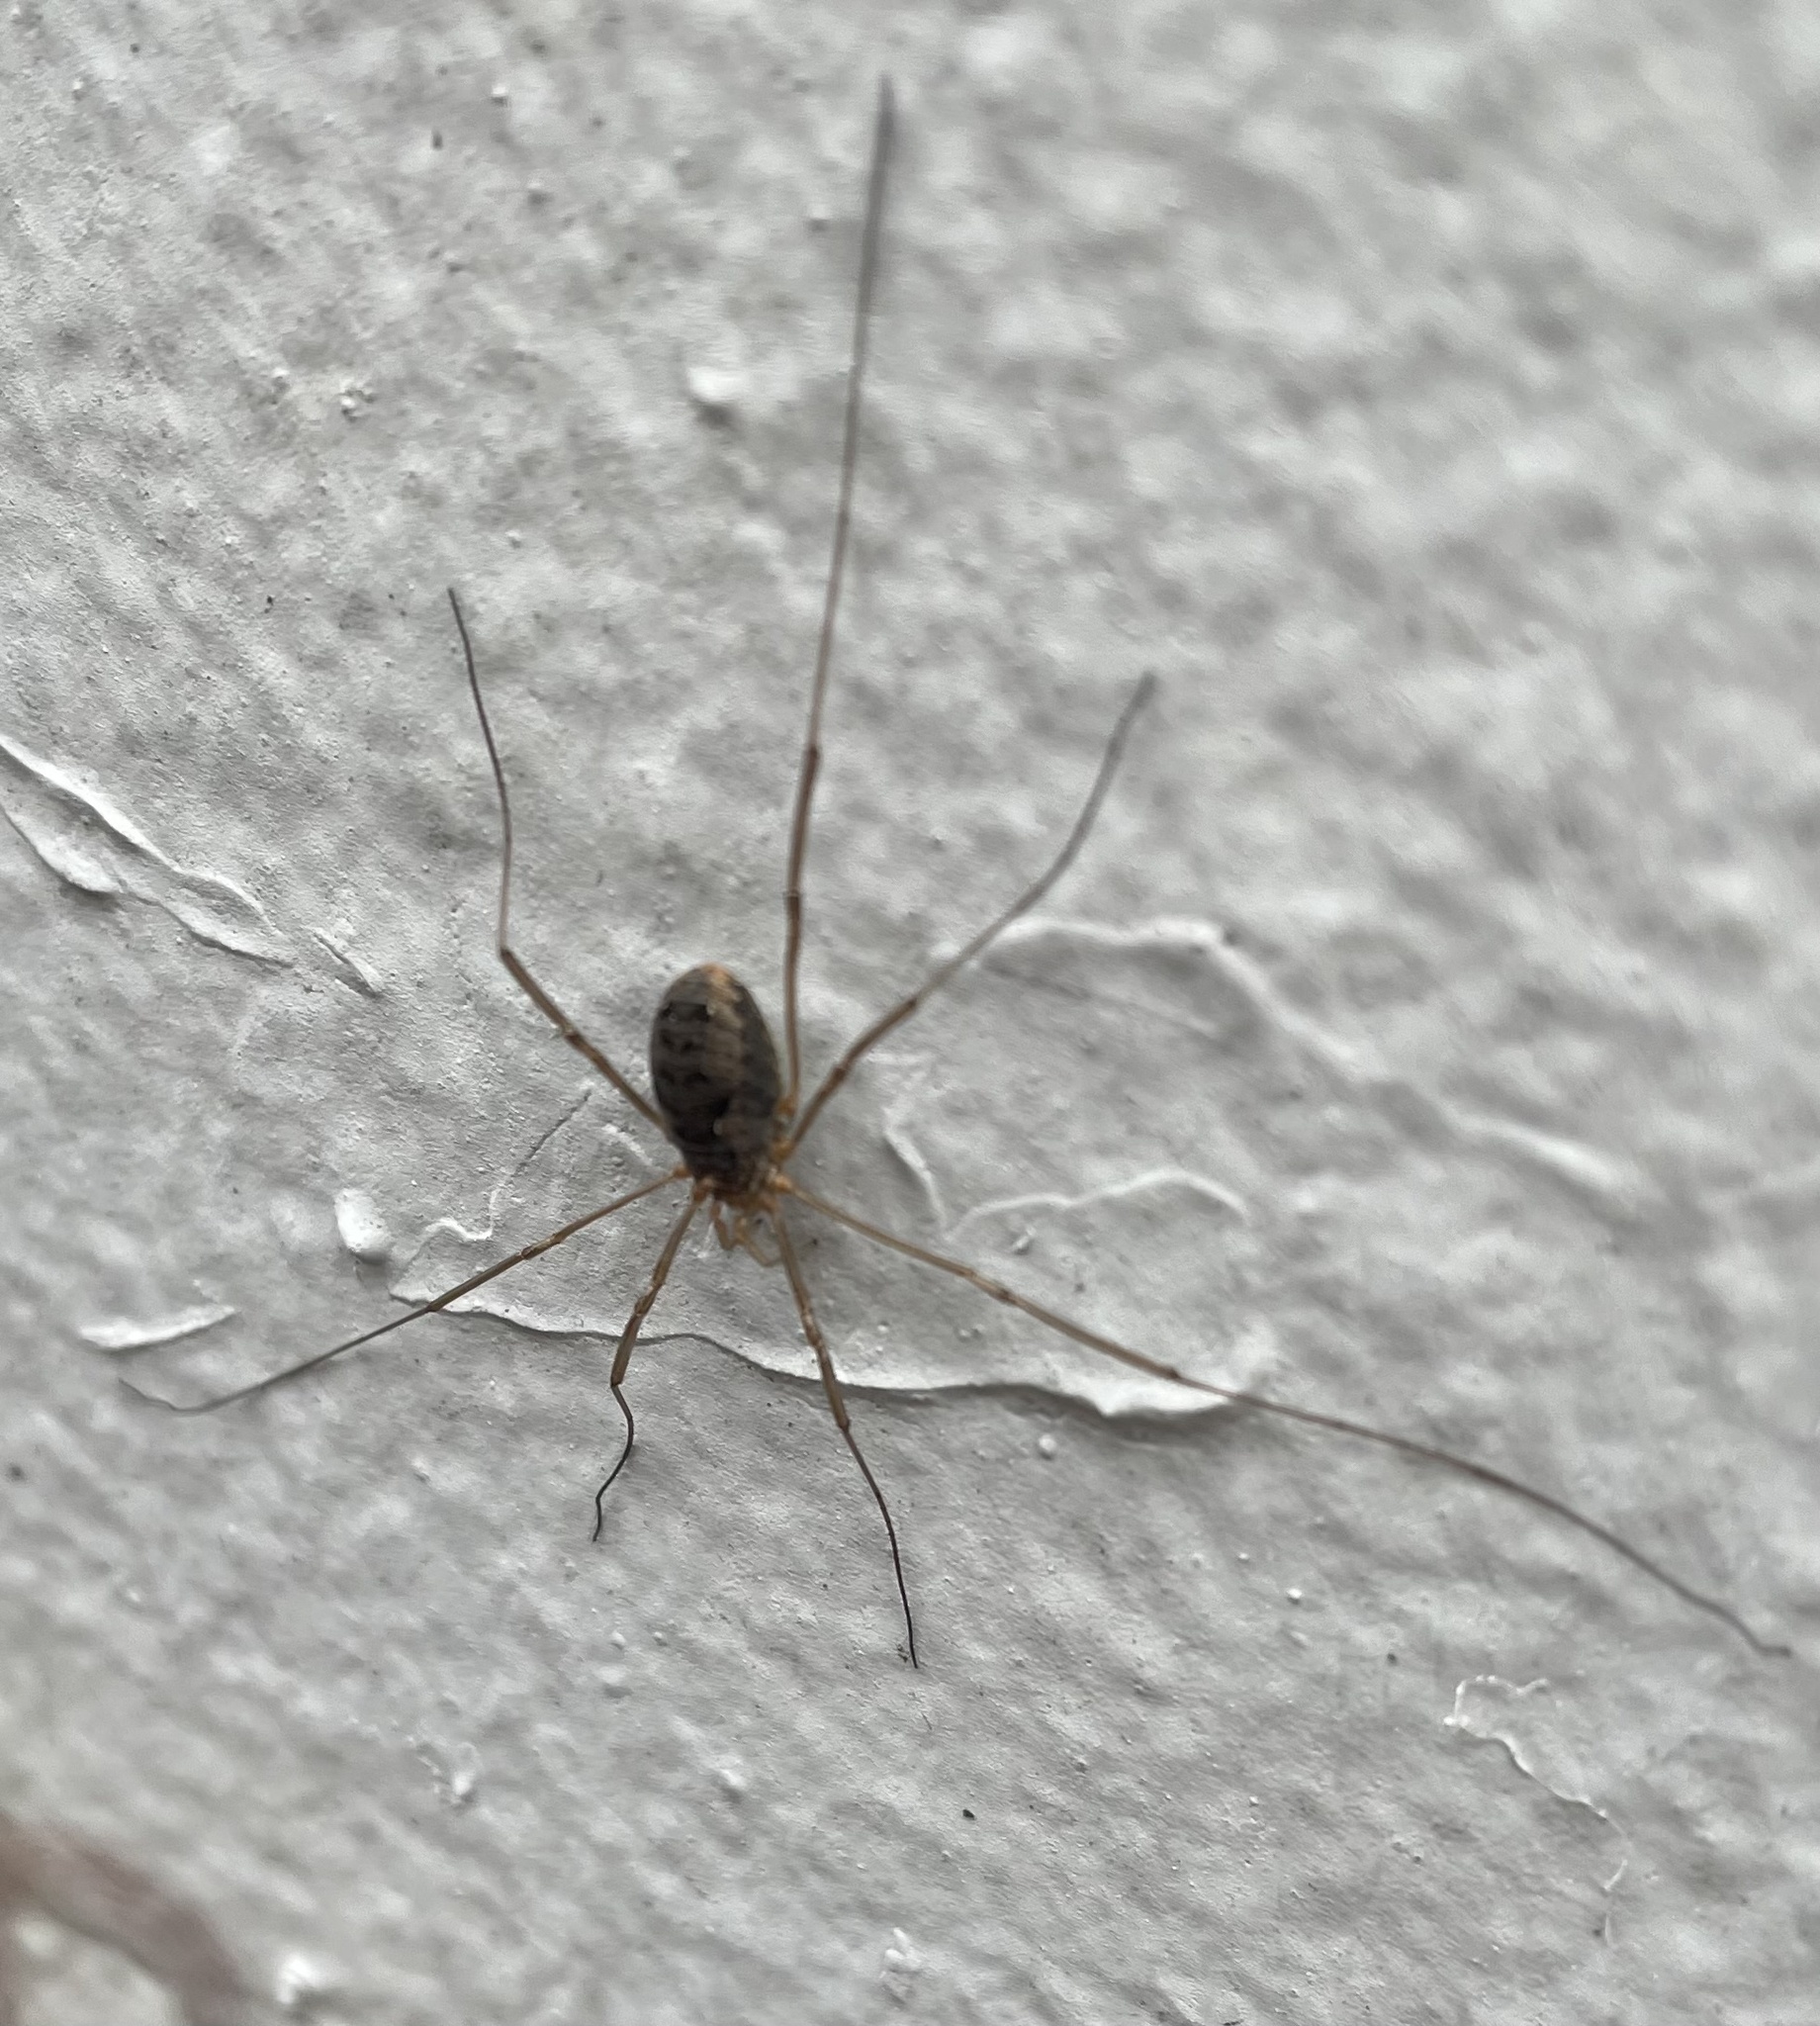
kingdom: Animalia
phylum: Arthropoda
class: Arachnida
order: Opiliones
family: Phalangiidae
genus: Phalangium
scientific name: Phalangium opilio
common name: Daddy longleg
